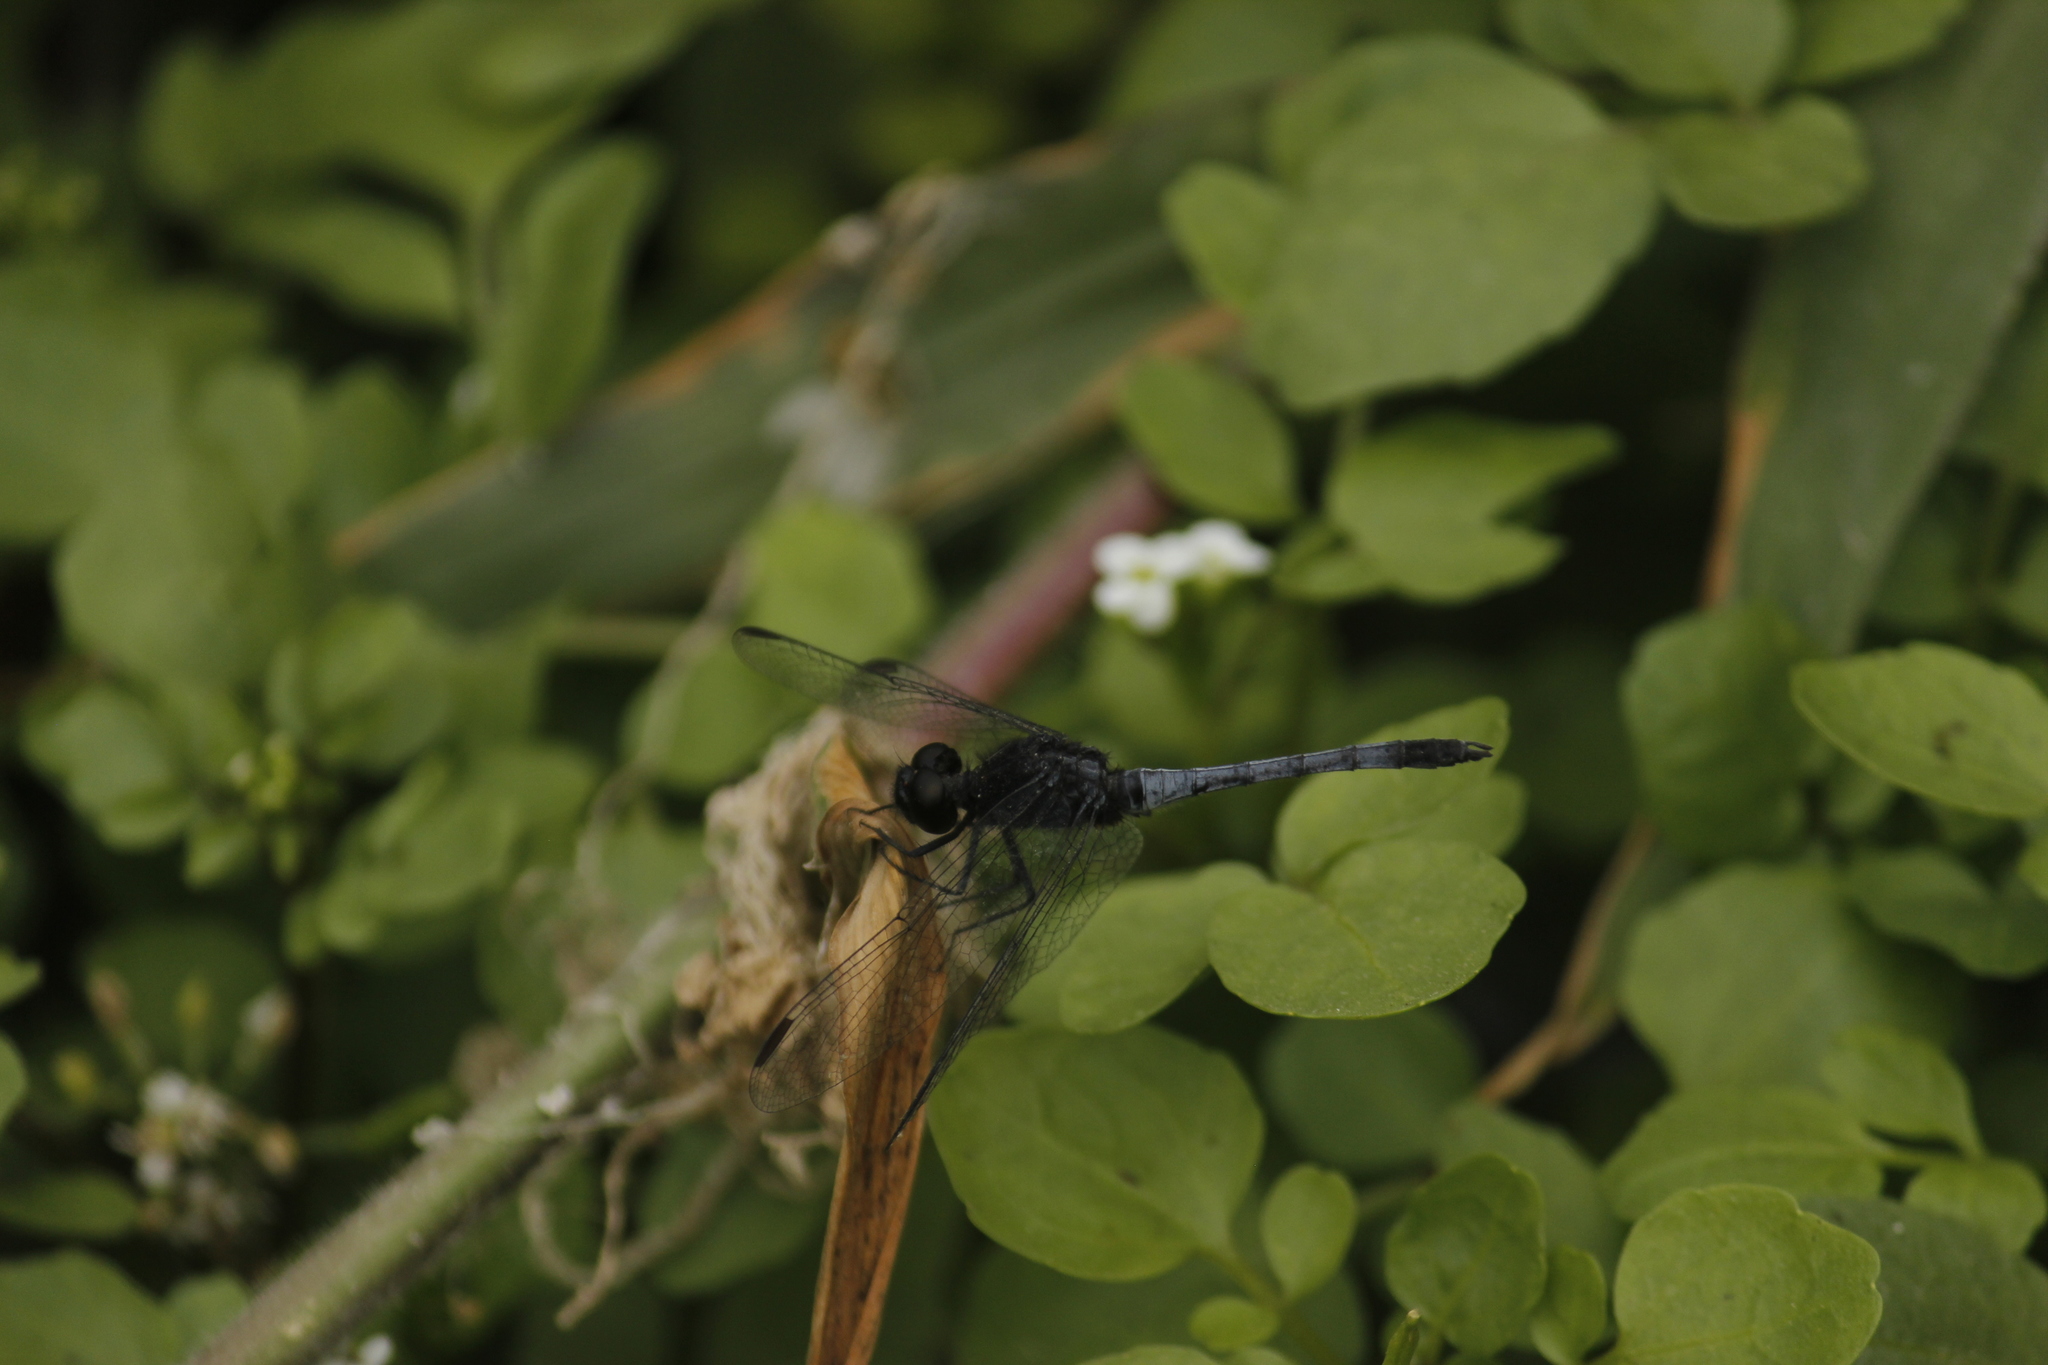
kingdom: Animalia
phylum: Arthropoda
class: Insecta
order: Odonata
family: Libellulidae
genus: Erythrodiplax
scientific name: Erythrodiplax cleopatra
